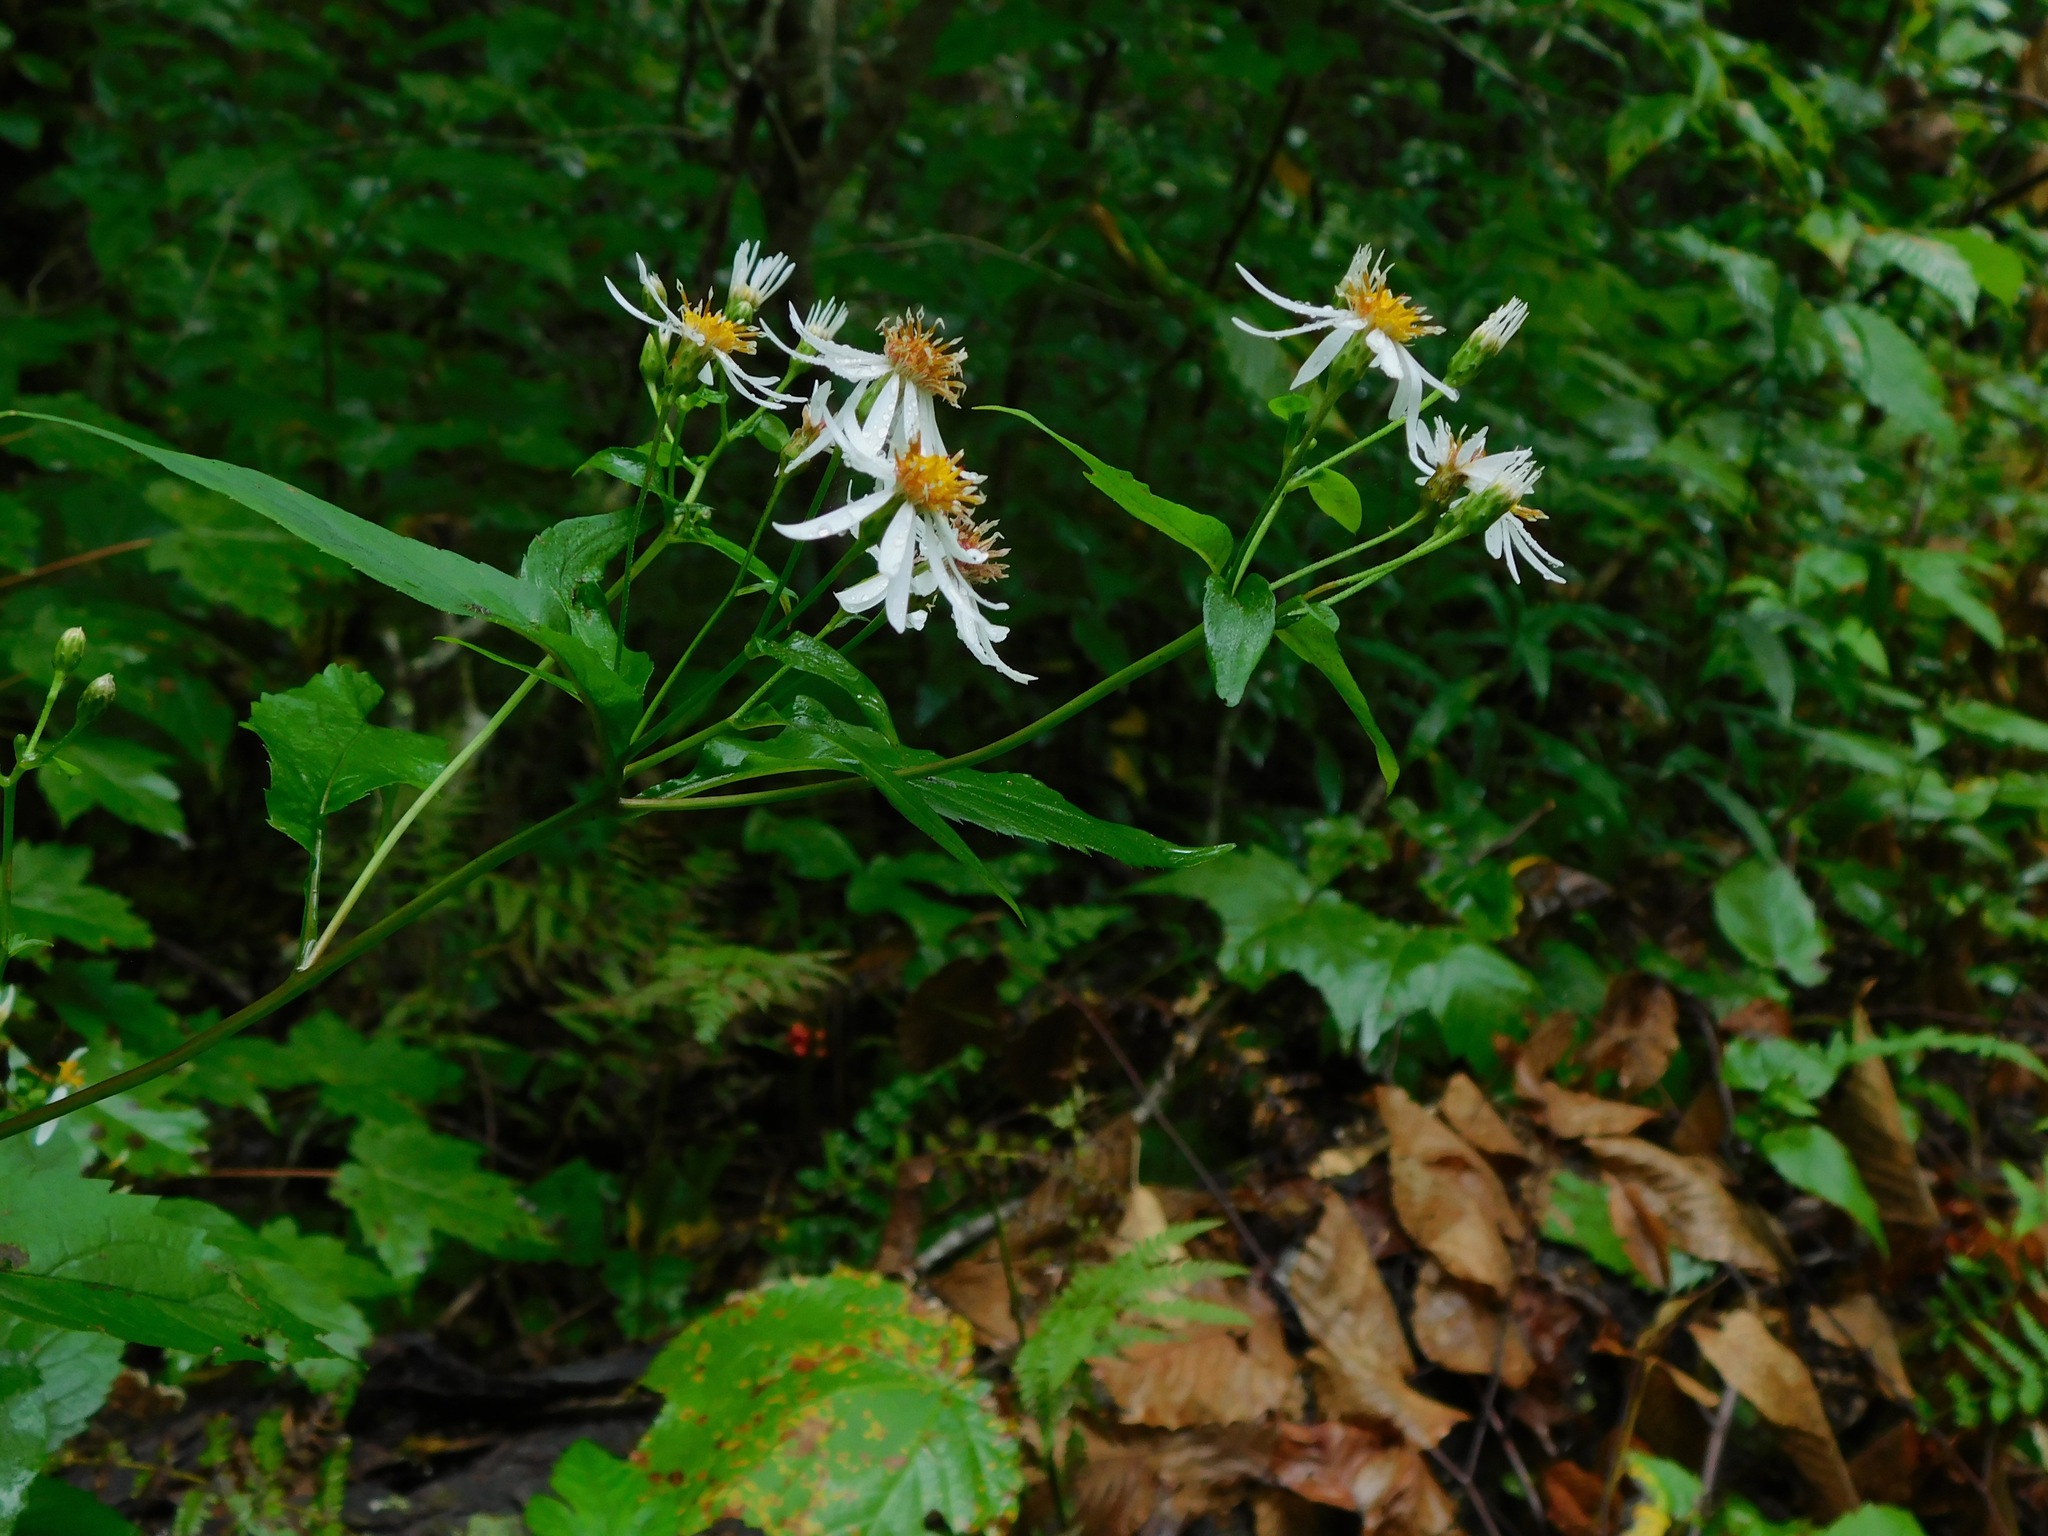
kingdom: Plantae
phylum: Tracheophyta
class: Magnoliopsida
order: Asterales
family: Asteraceae
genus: Eurybia
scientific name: Eurybia chlorolepis
